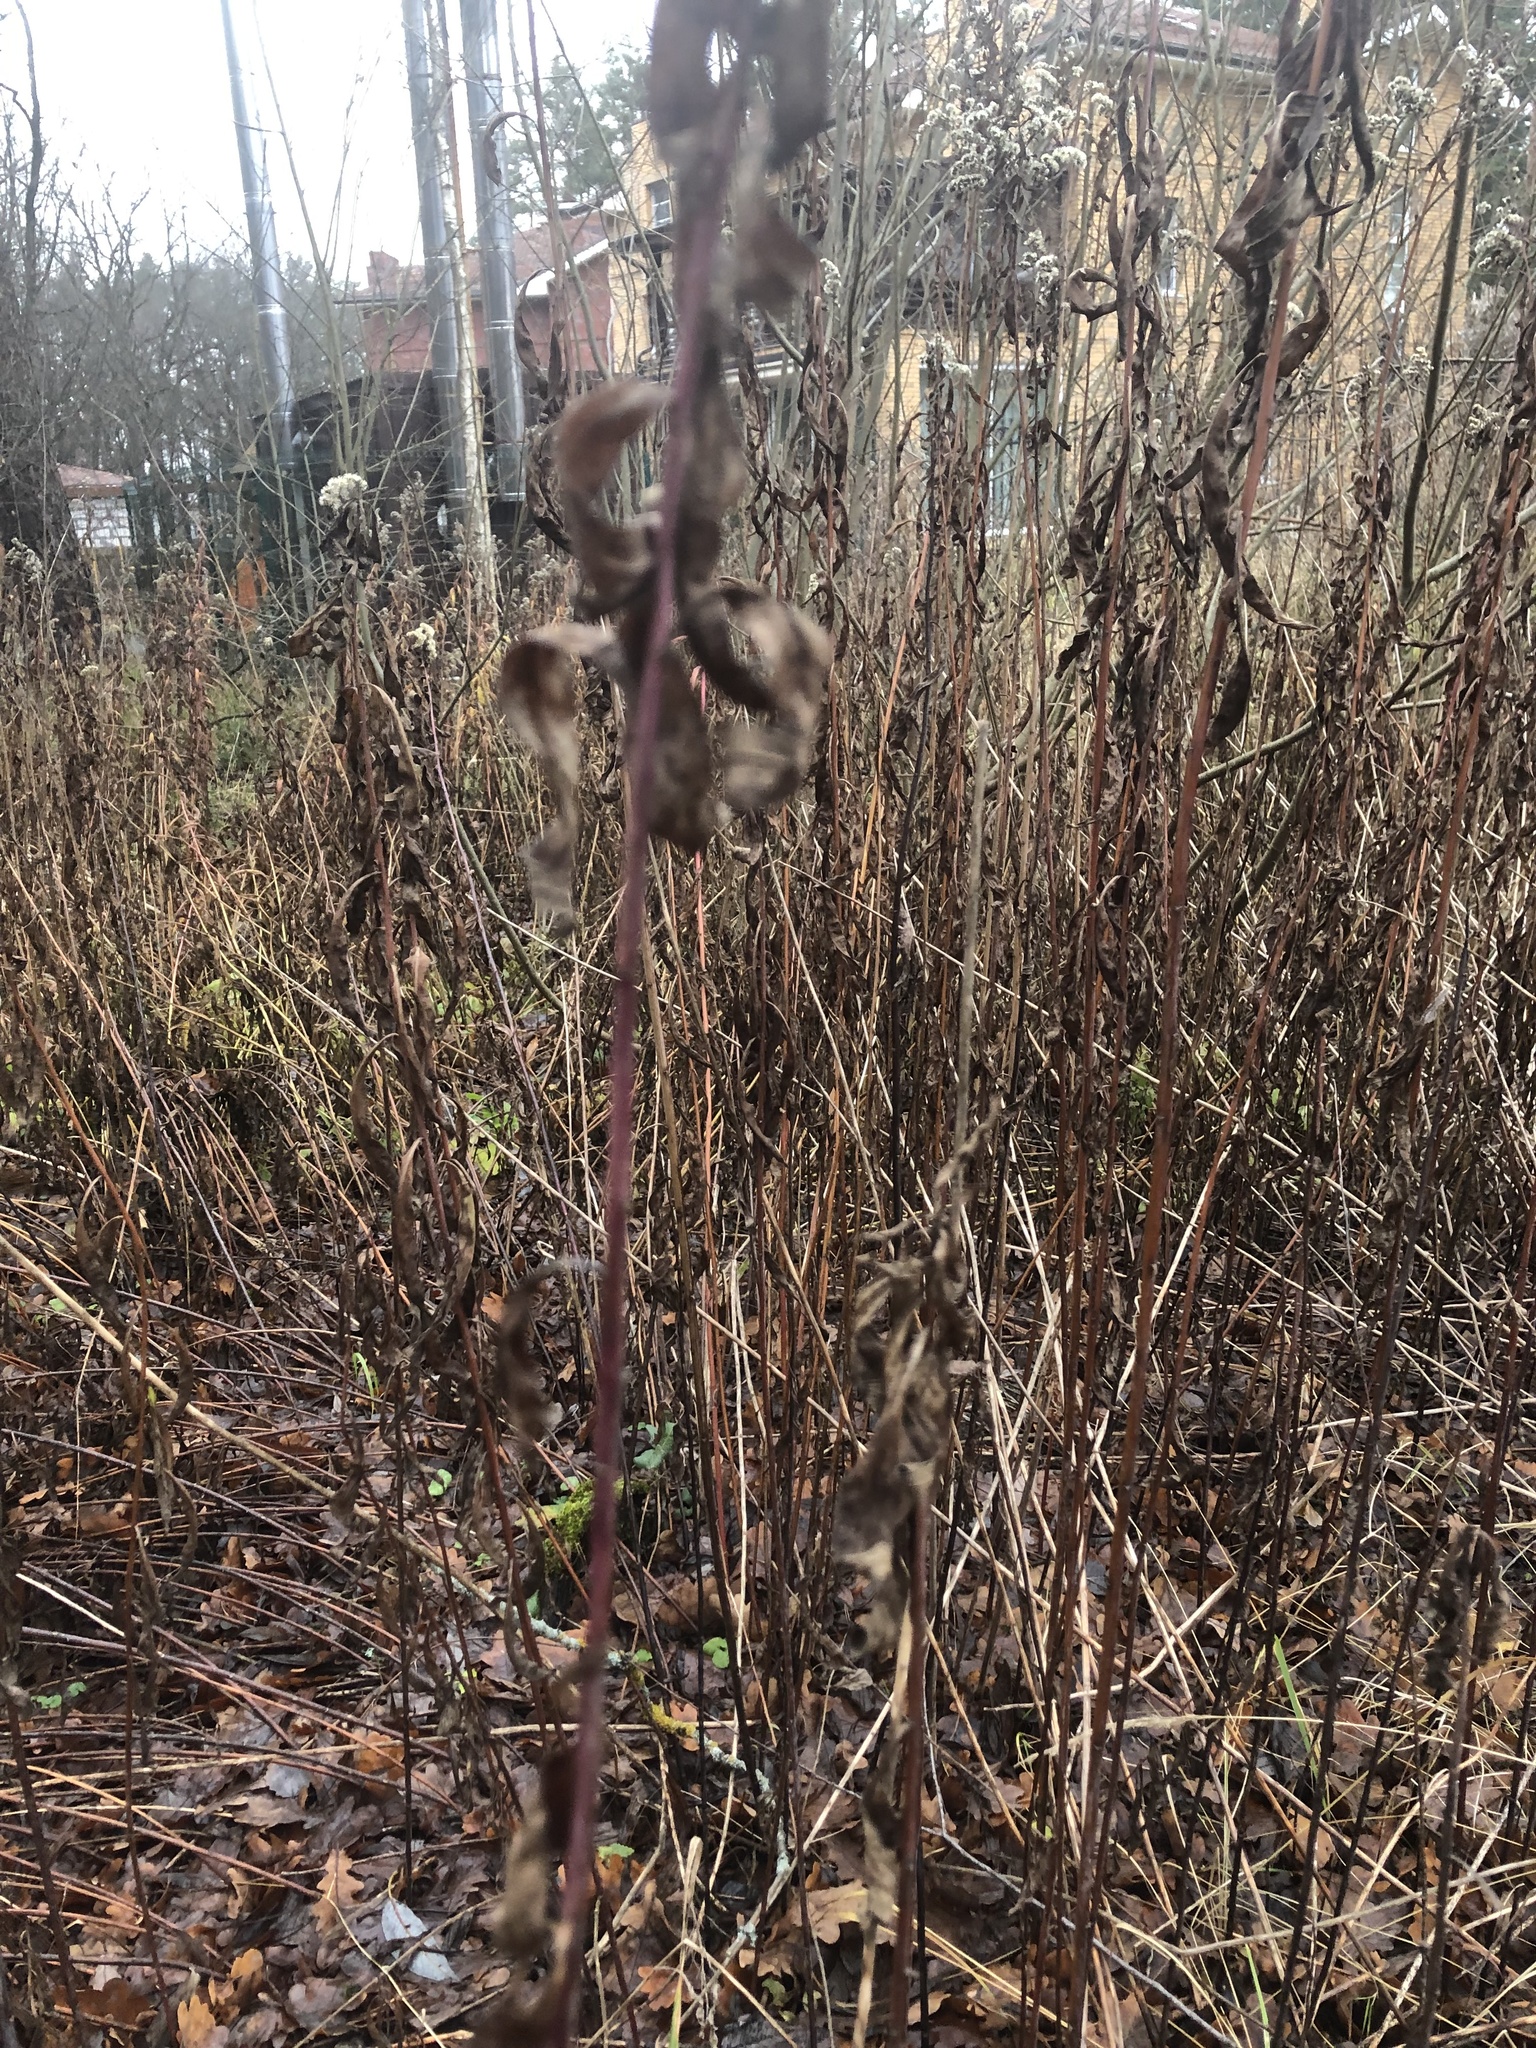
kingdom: Plantae
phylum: Tracheophyta
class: Magnoliopsida
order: Asterales
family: Asteraceae
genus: Solidago
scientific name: Solidago gigantea
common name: Giant goldenrod
